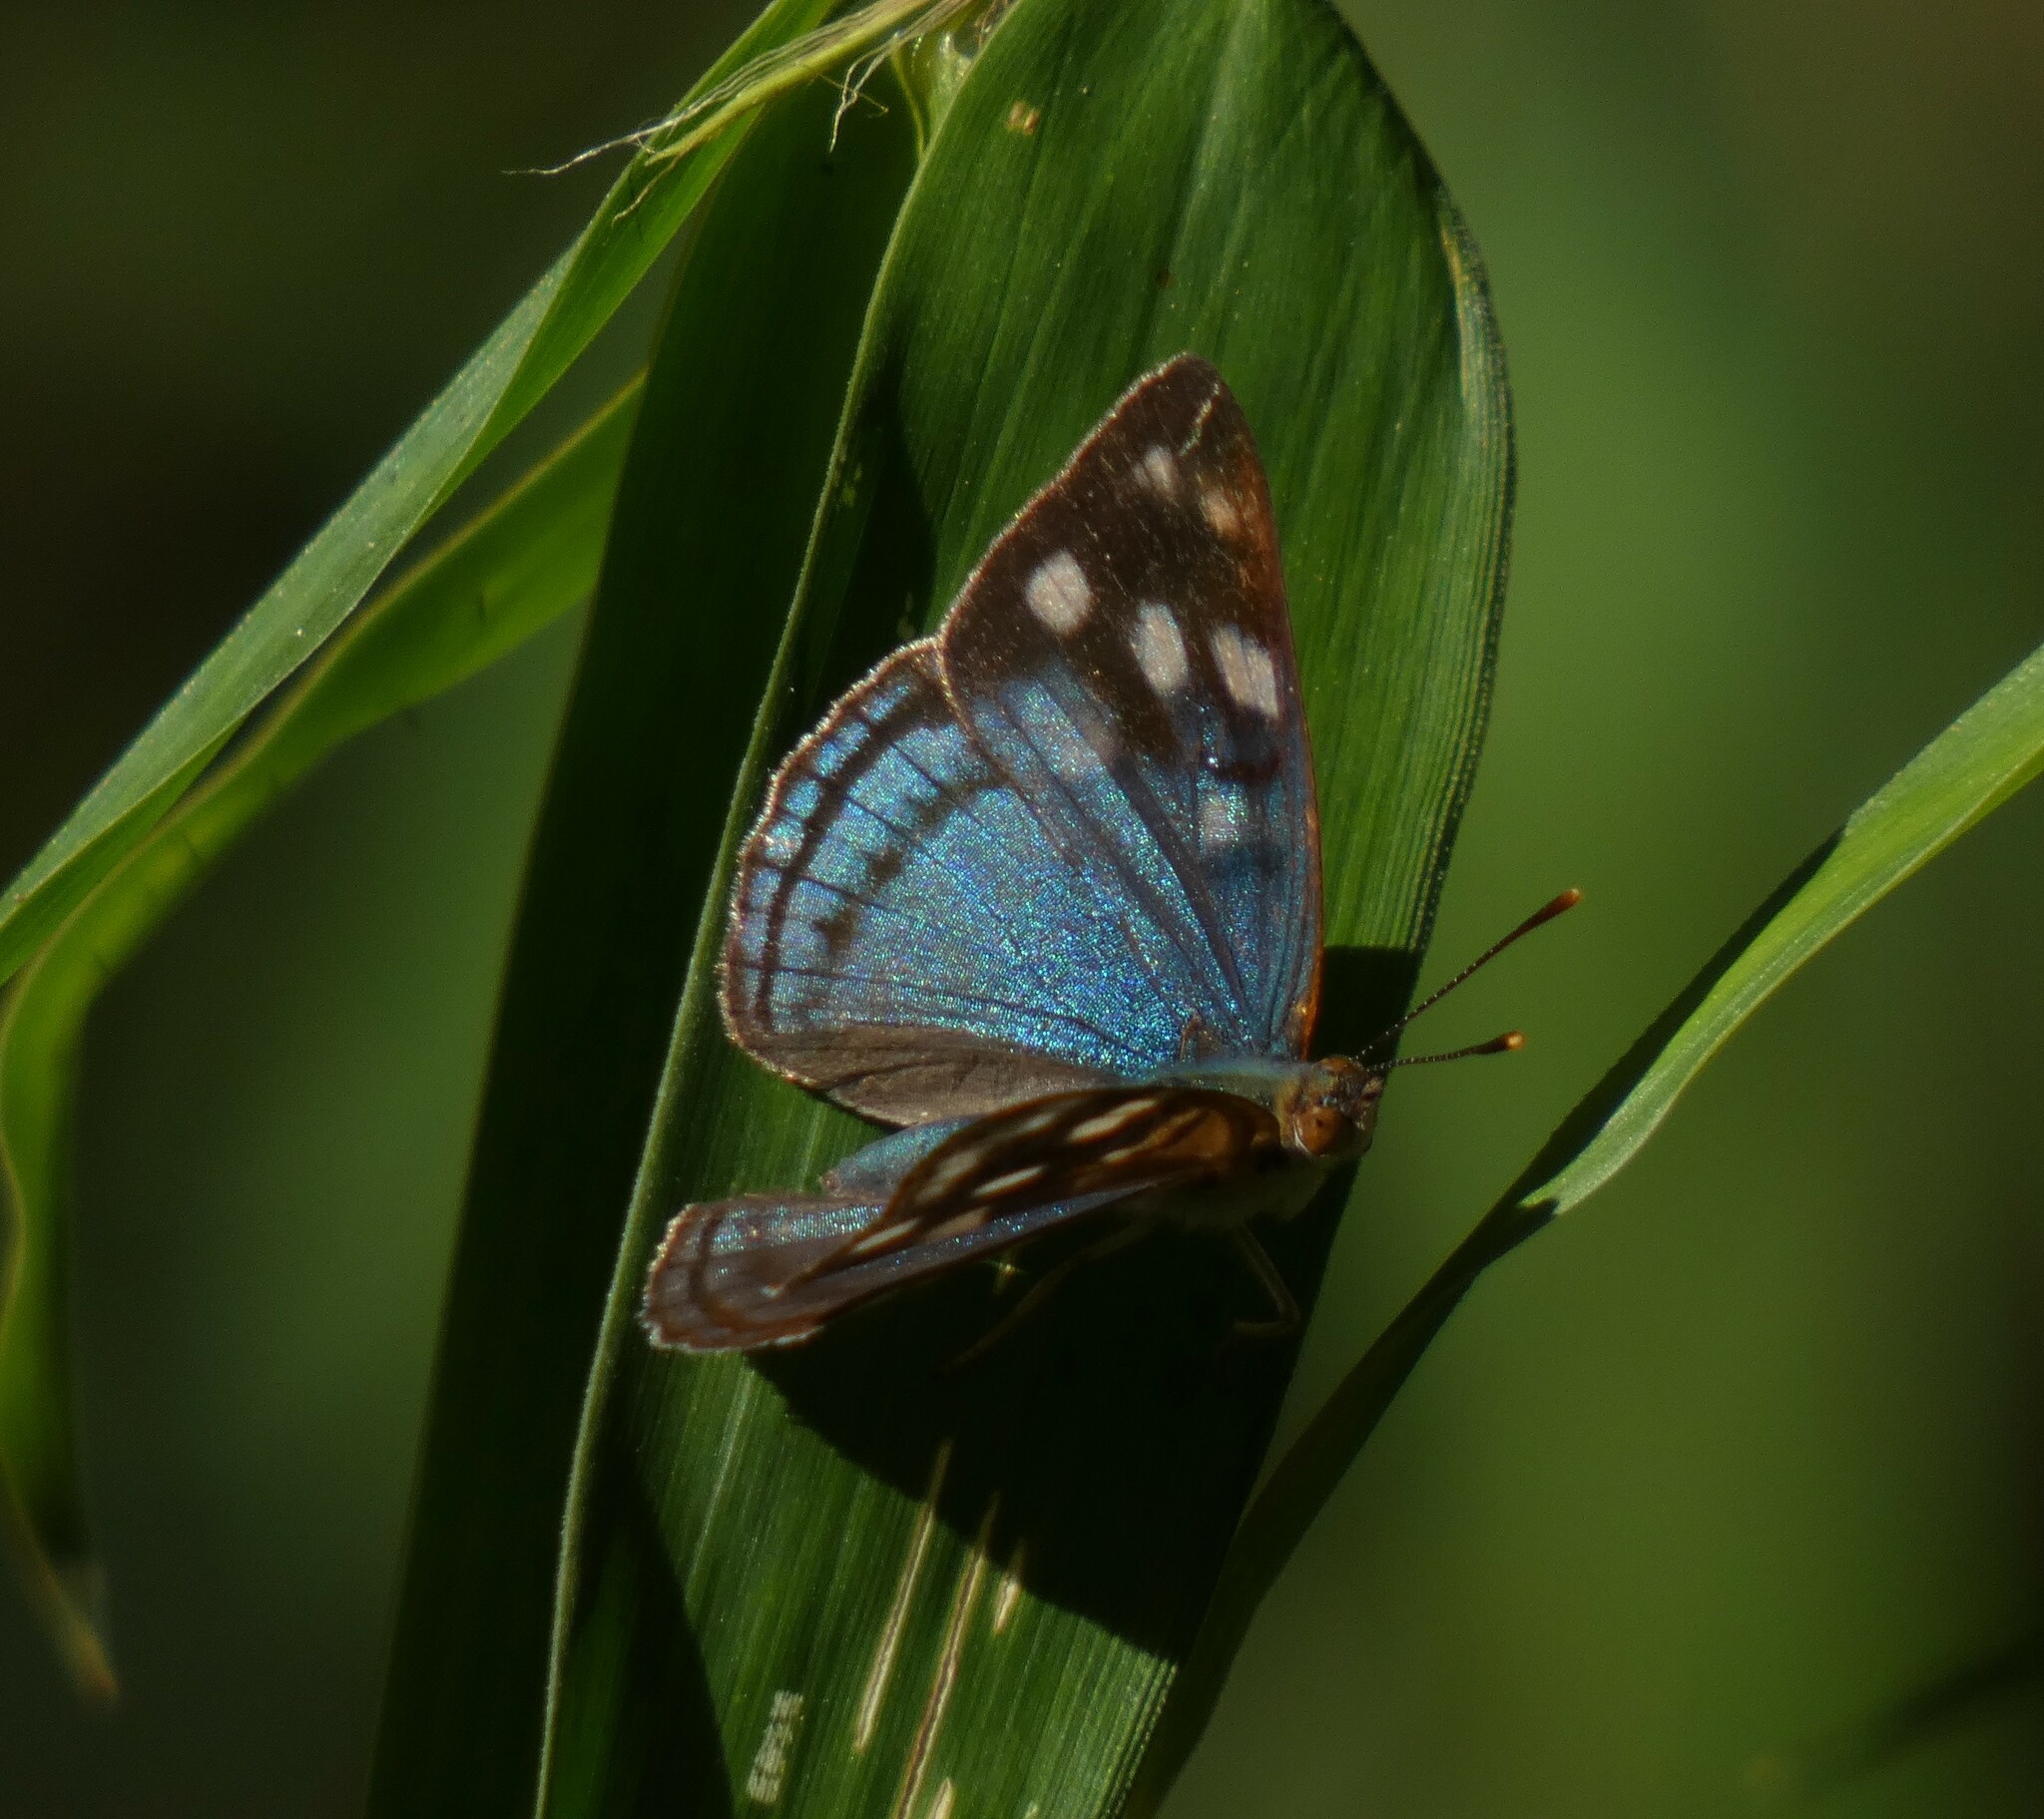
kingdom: Animalia
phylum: Arthropoda
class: Insecta
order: Lepidoptera
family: Nymphalidae
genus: Dynamine
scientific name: Dynamine tithia
